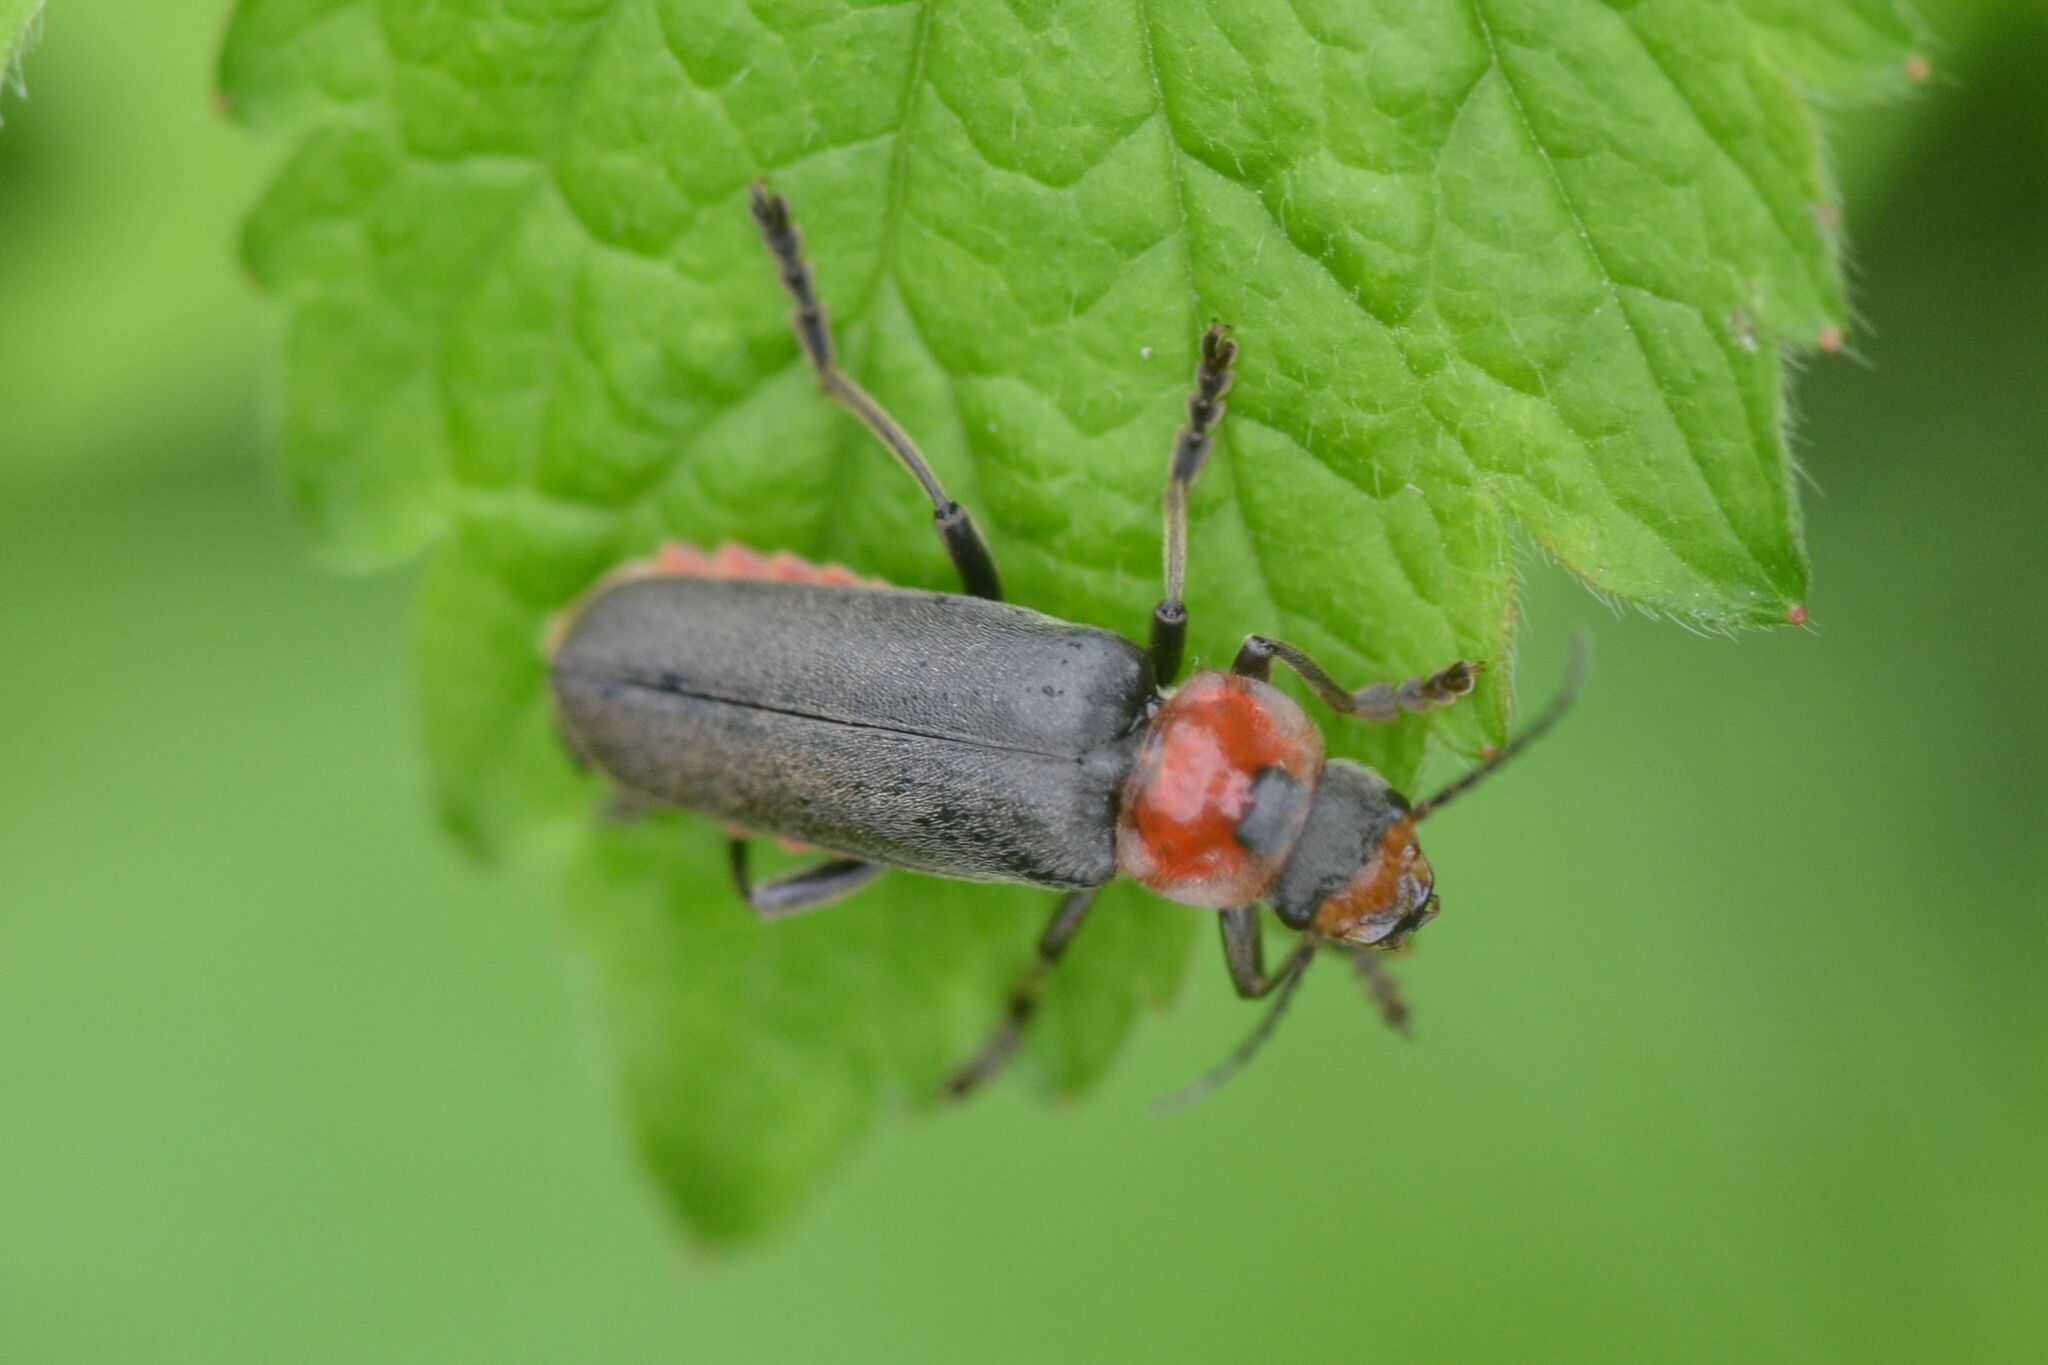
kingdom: Animalia
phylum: Arthropoda
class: Insecta
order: Coleoptera
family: Cantharidae
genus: Cantharis
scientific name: Cantharis fusca
